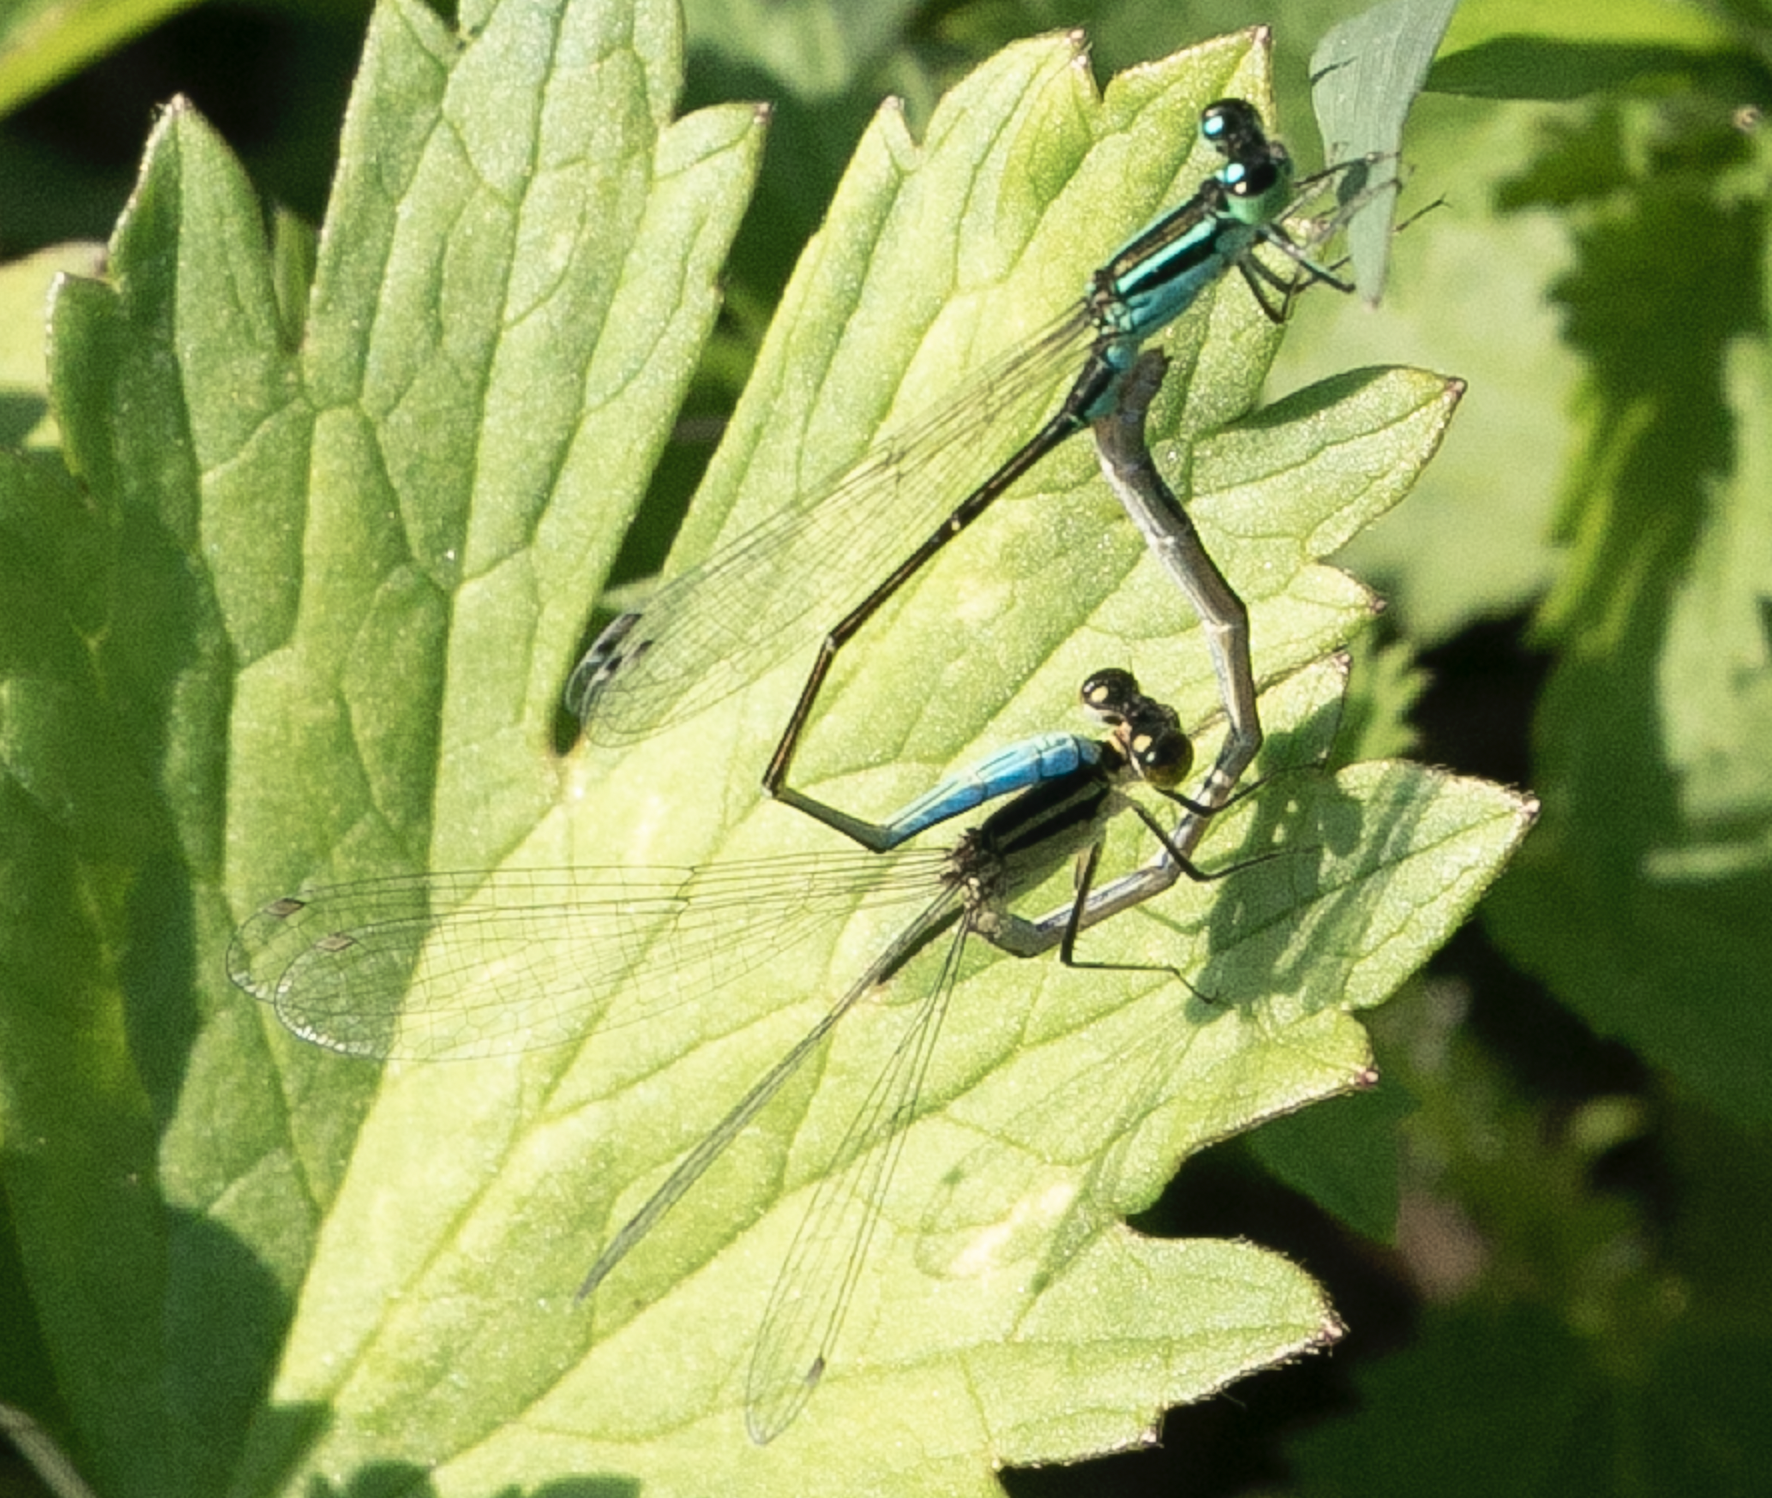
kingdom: Animalia
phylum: Arthropoda
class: Insecta
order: Odonata
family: Coenagrionidae
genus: Ischnura
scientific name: Ischnura elegans
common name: Blue-tailed damselfly
